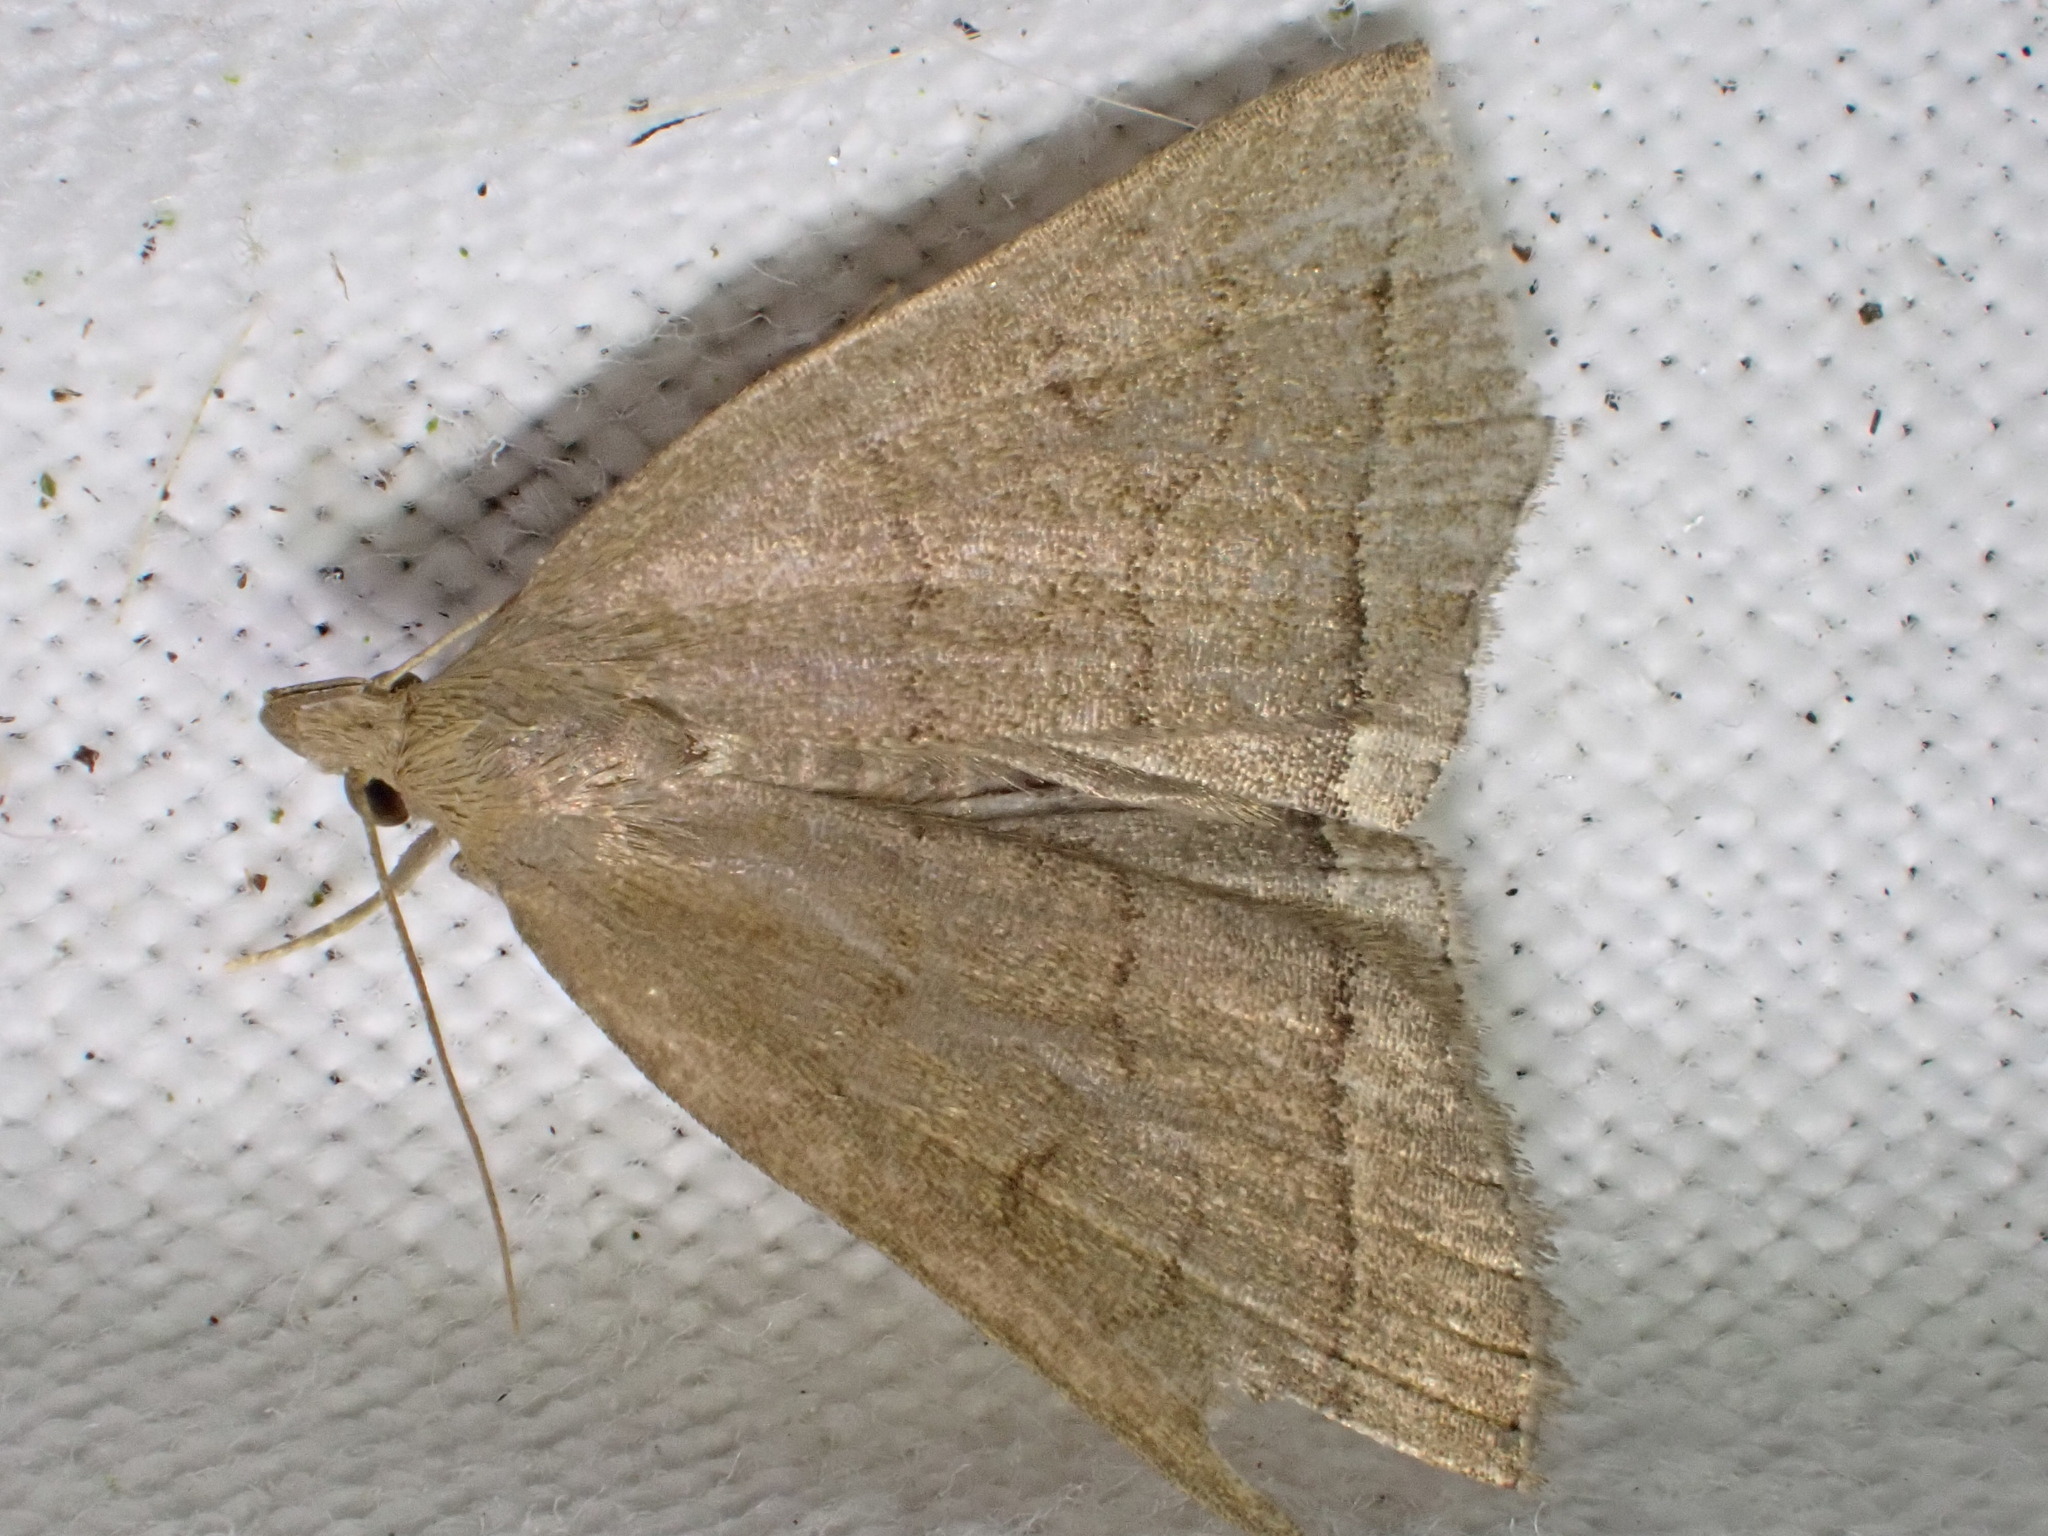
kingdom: Animalia
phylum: Arthropoda
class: Insecta
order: Lepidoptera
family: Erebidae
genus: Herminia
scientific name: Herminia tarsipennalis
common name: Fan-foot
